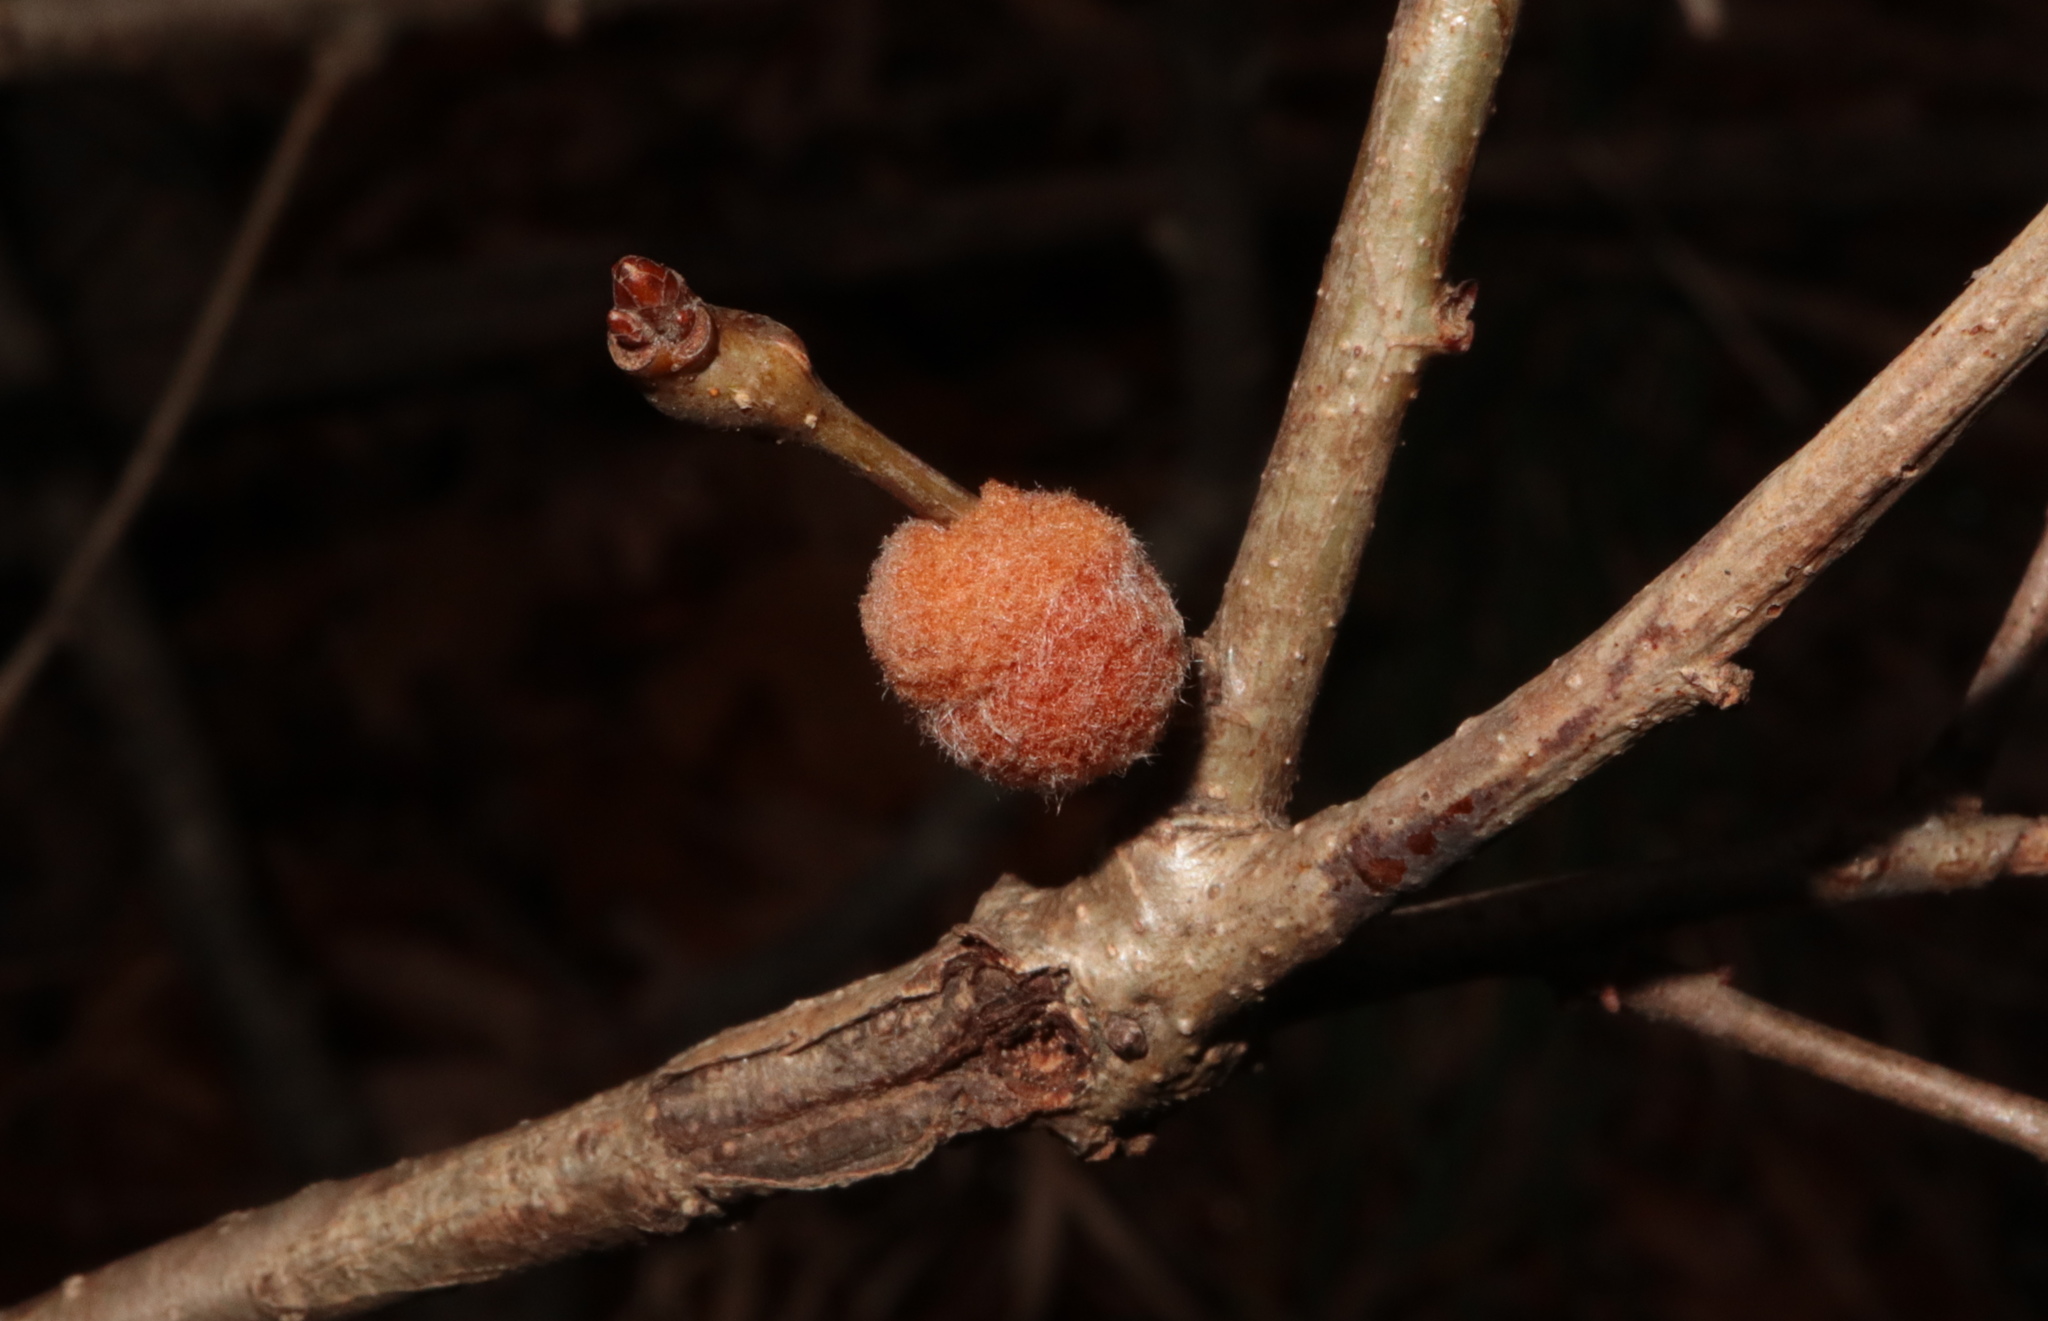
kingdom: Animalia
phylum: Arthropoda
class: Insecta
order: Hymenoptera
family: Cynipidae
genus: Andricus
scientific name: Andricus quercusflocci
